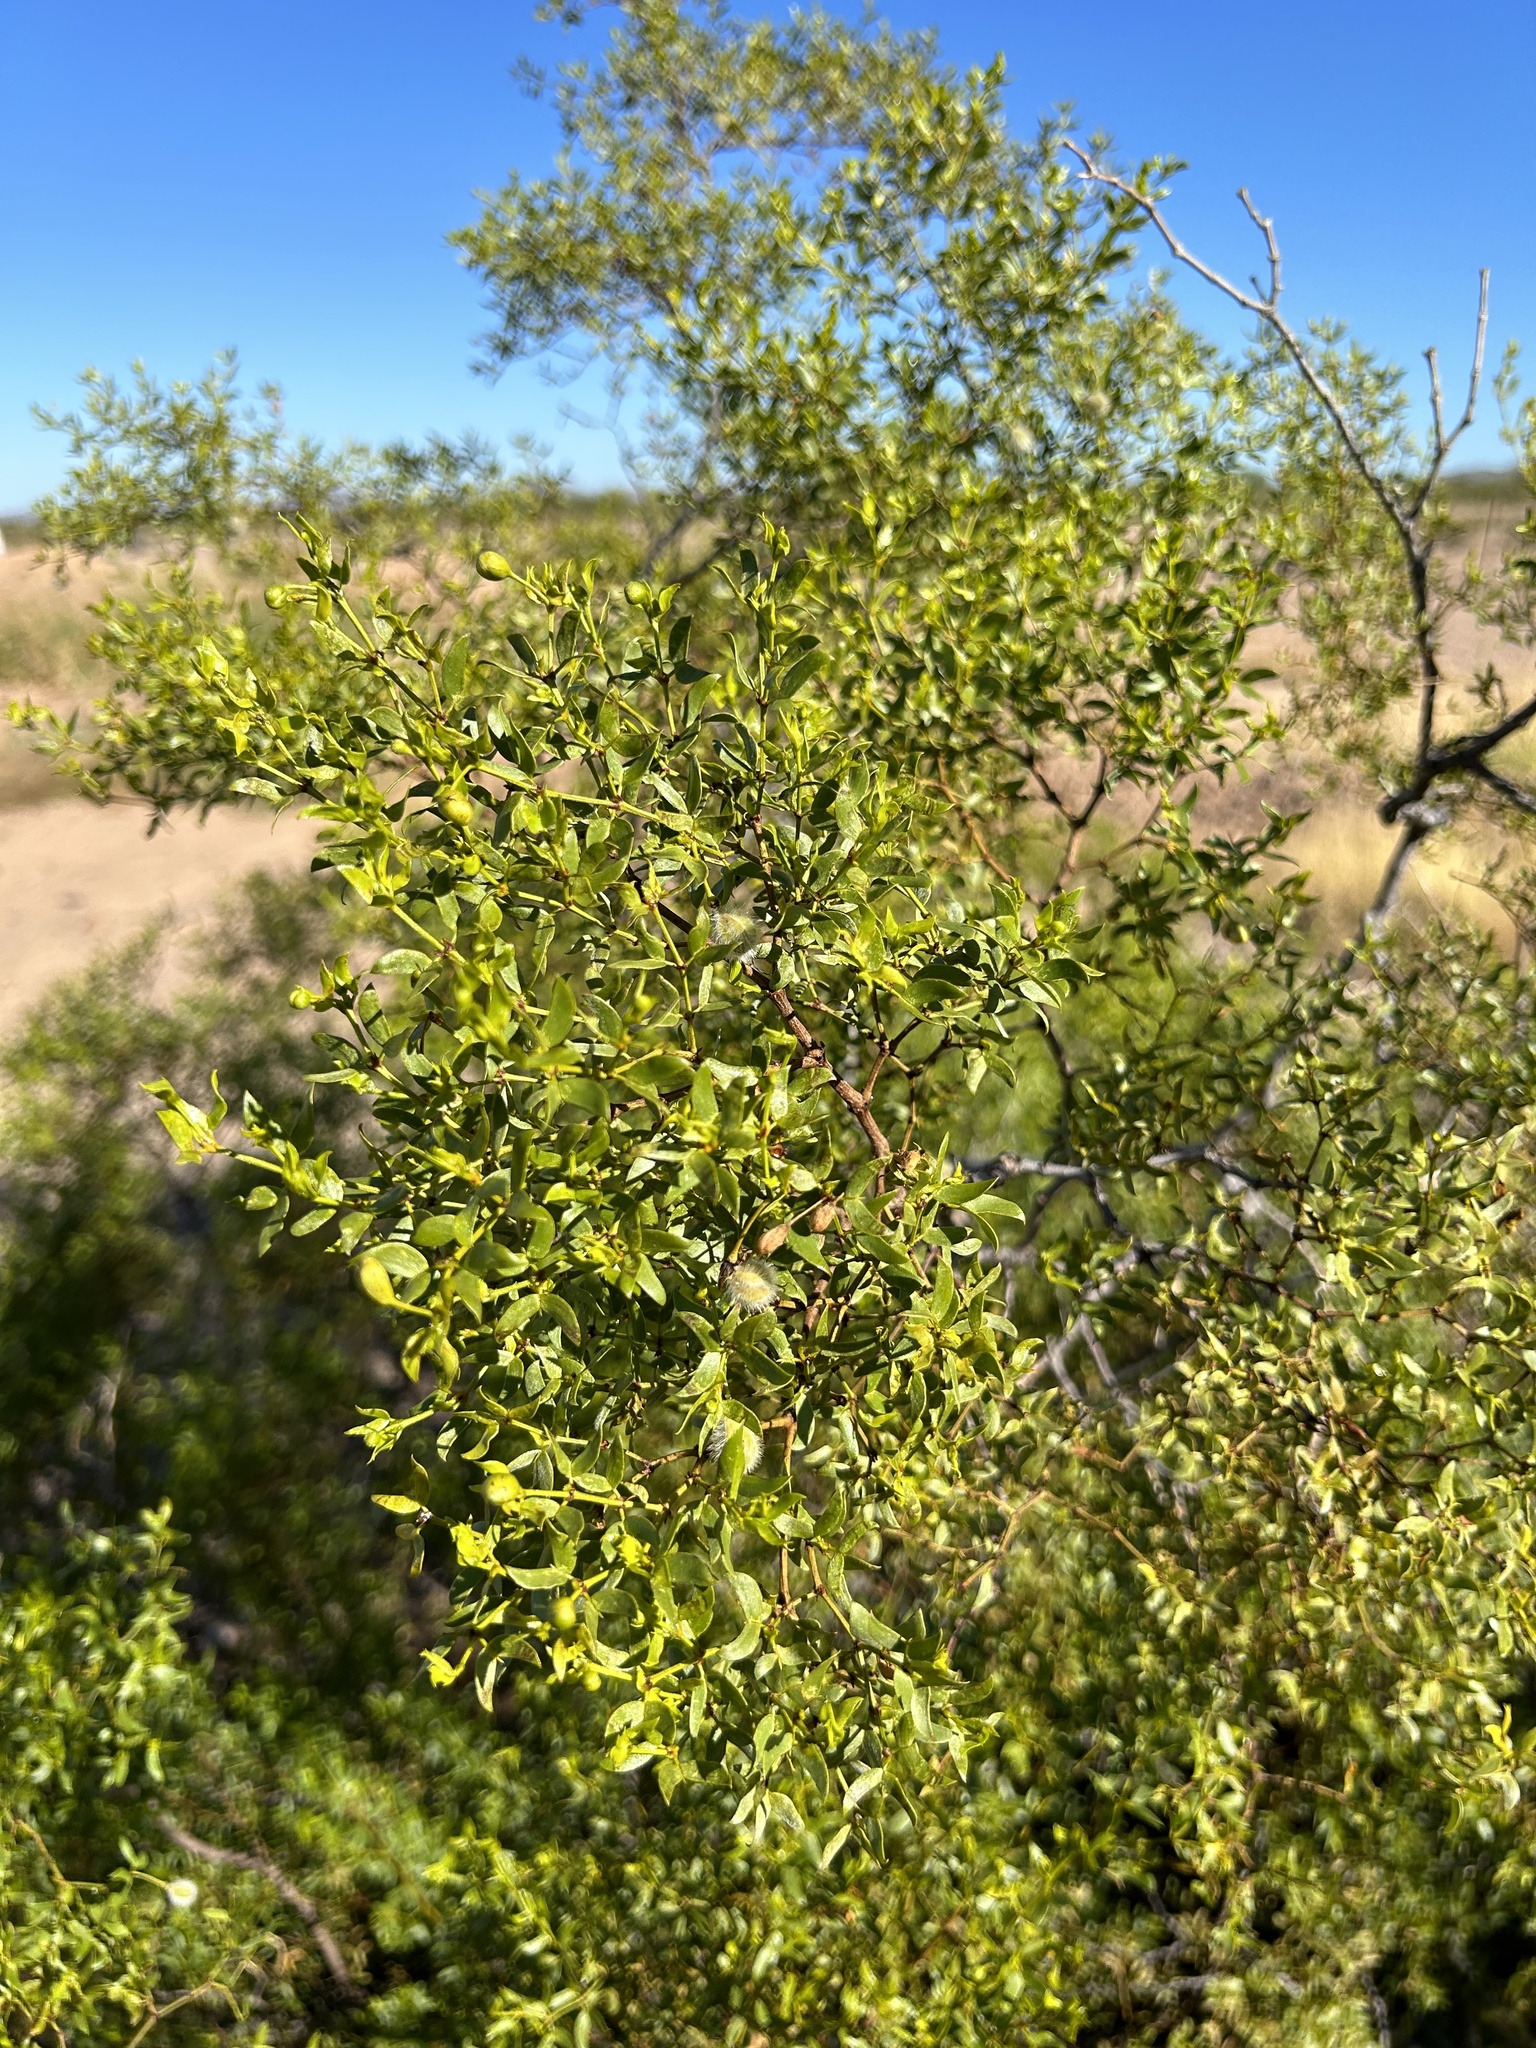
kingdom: Plantae
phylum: Tracheophyta
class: Magnoliopsida
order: Zygophyllales
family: Zygophyllaceae
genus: Larrea
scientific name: Larrea tridentata
